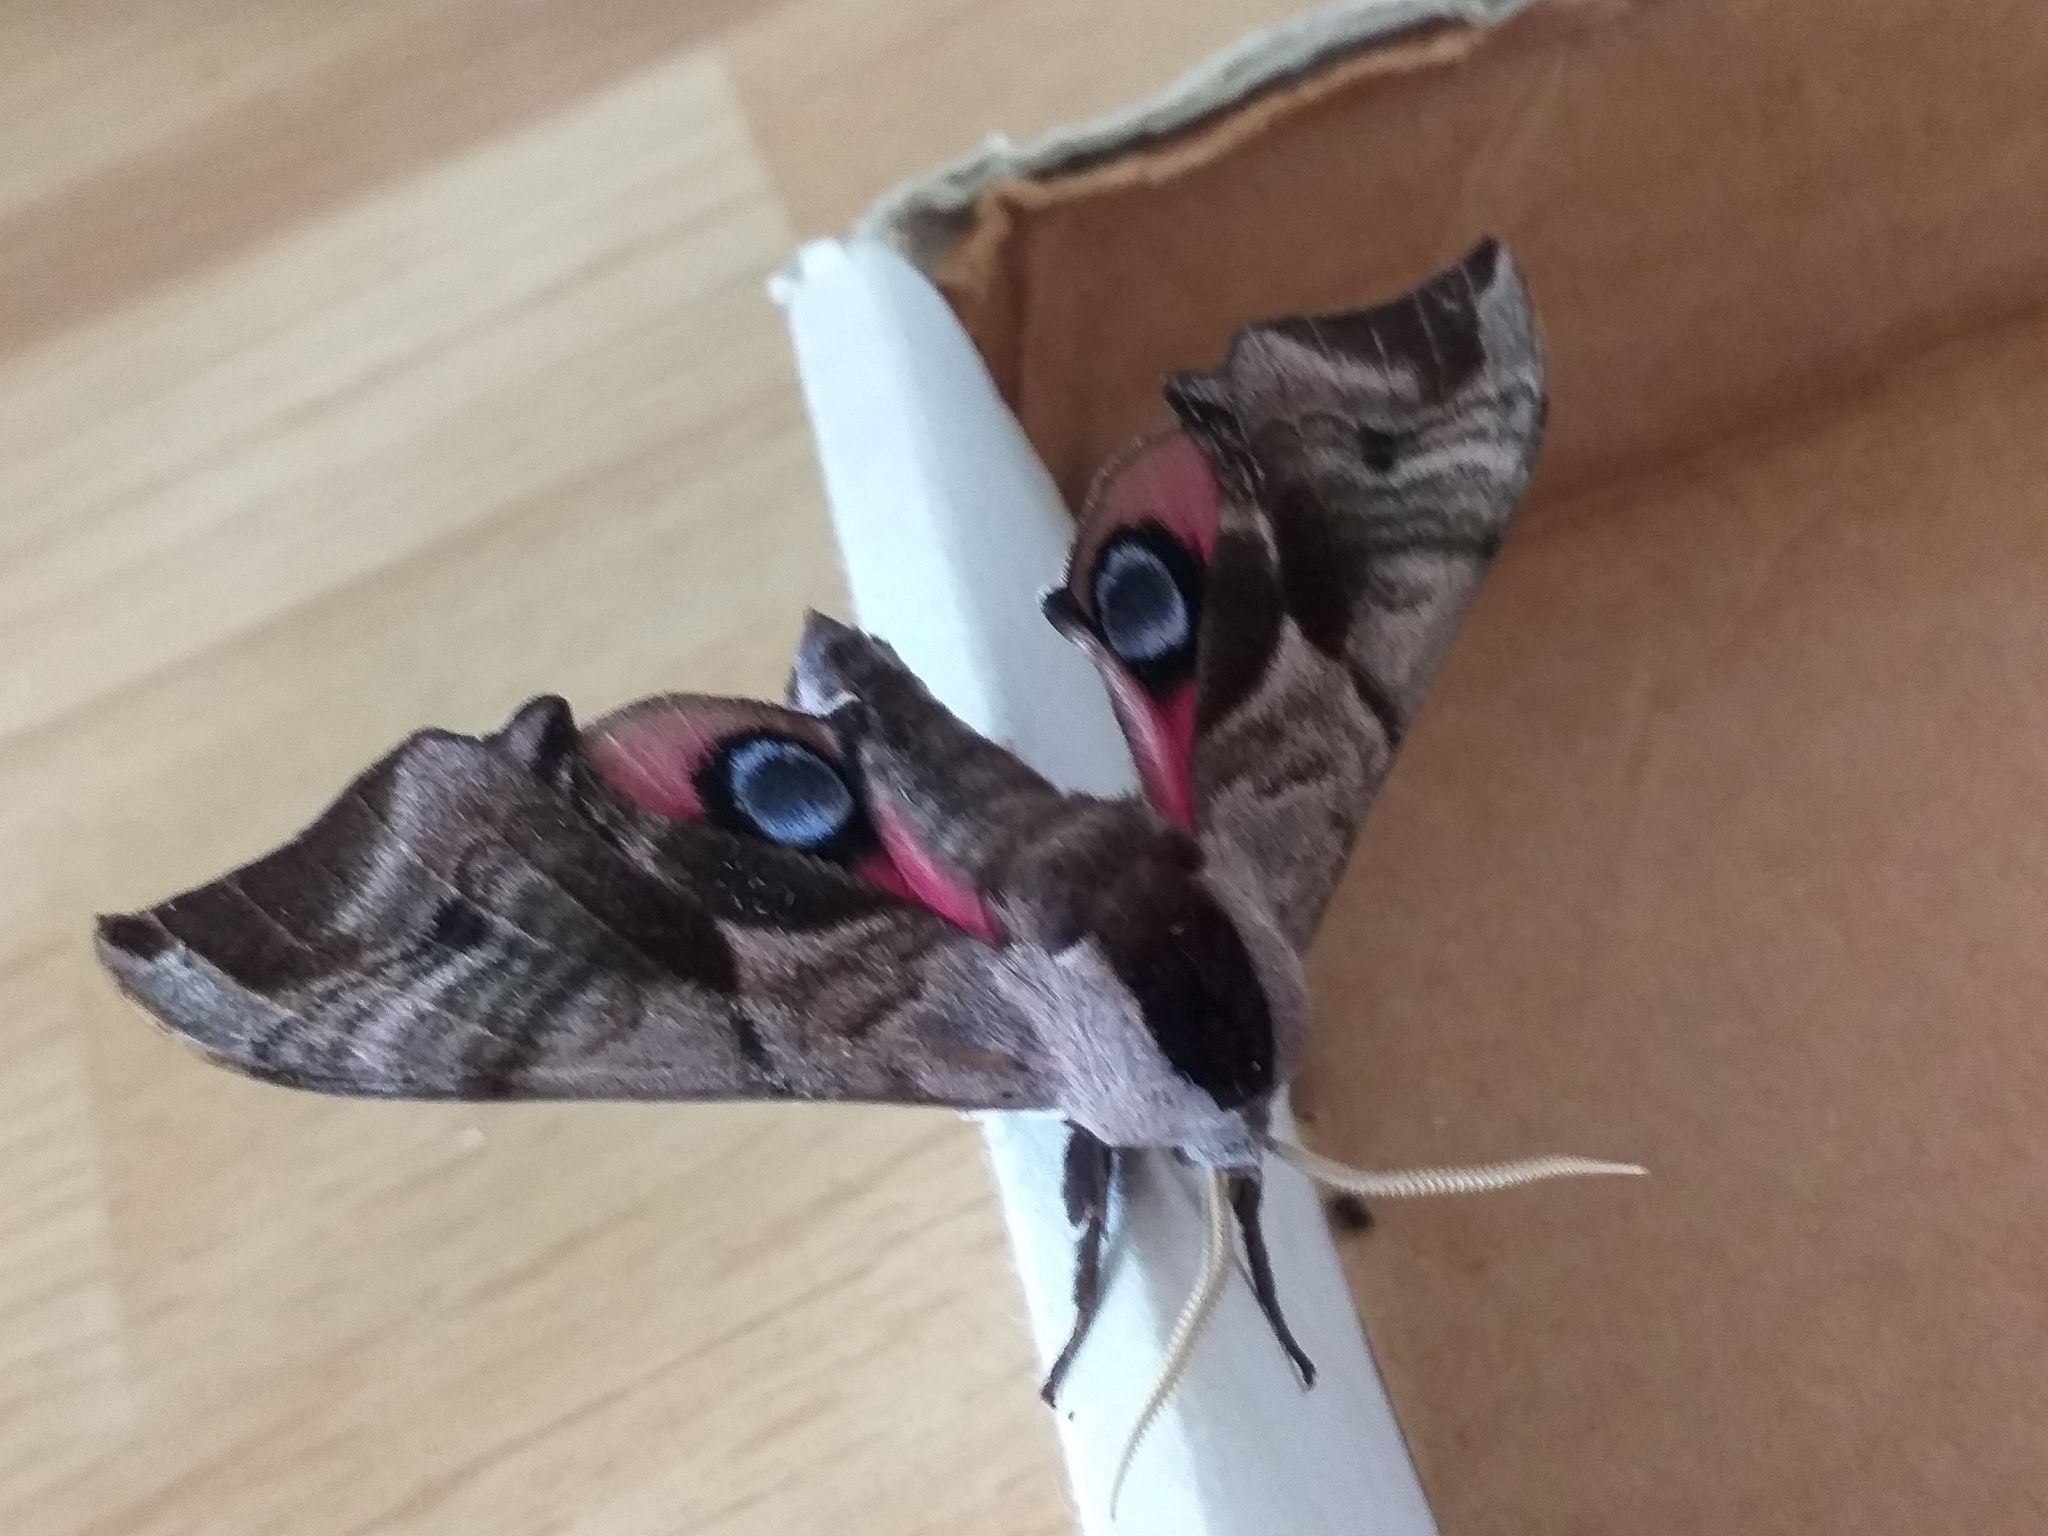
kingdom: Animalia
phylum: Arthropoda
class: Insecta
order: Lepidoptera
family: Sphingidae
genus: Smerinthus
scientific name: Smerinthus ocellata
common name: Eyed hawk-moth
